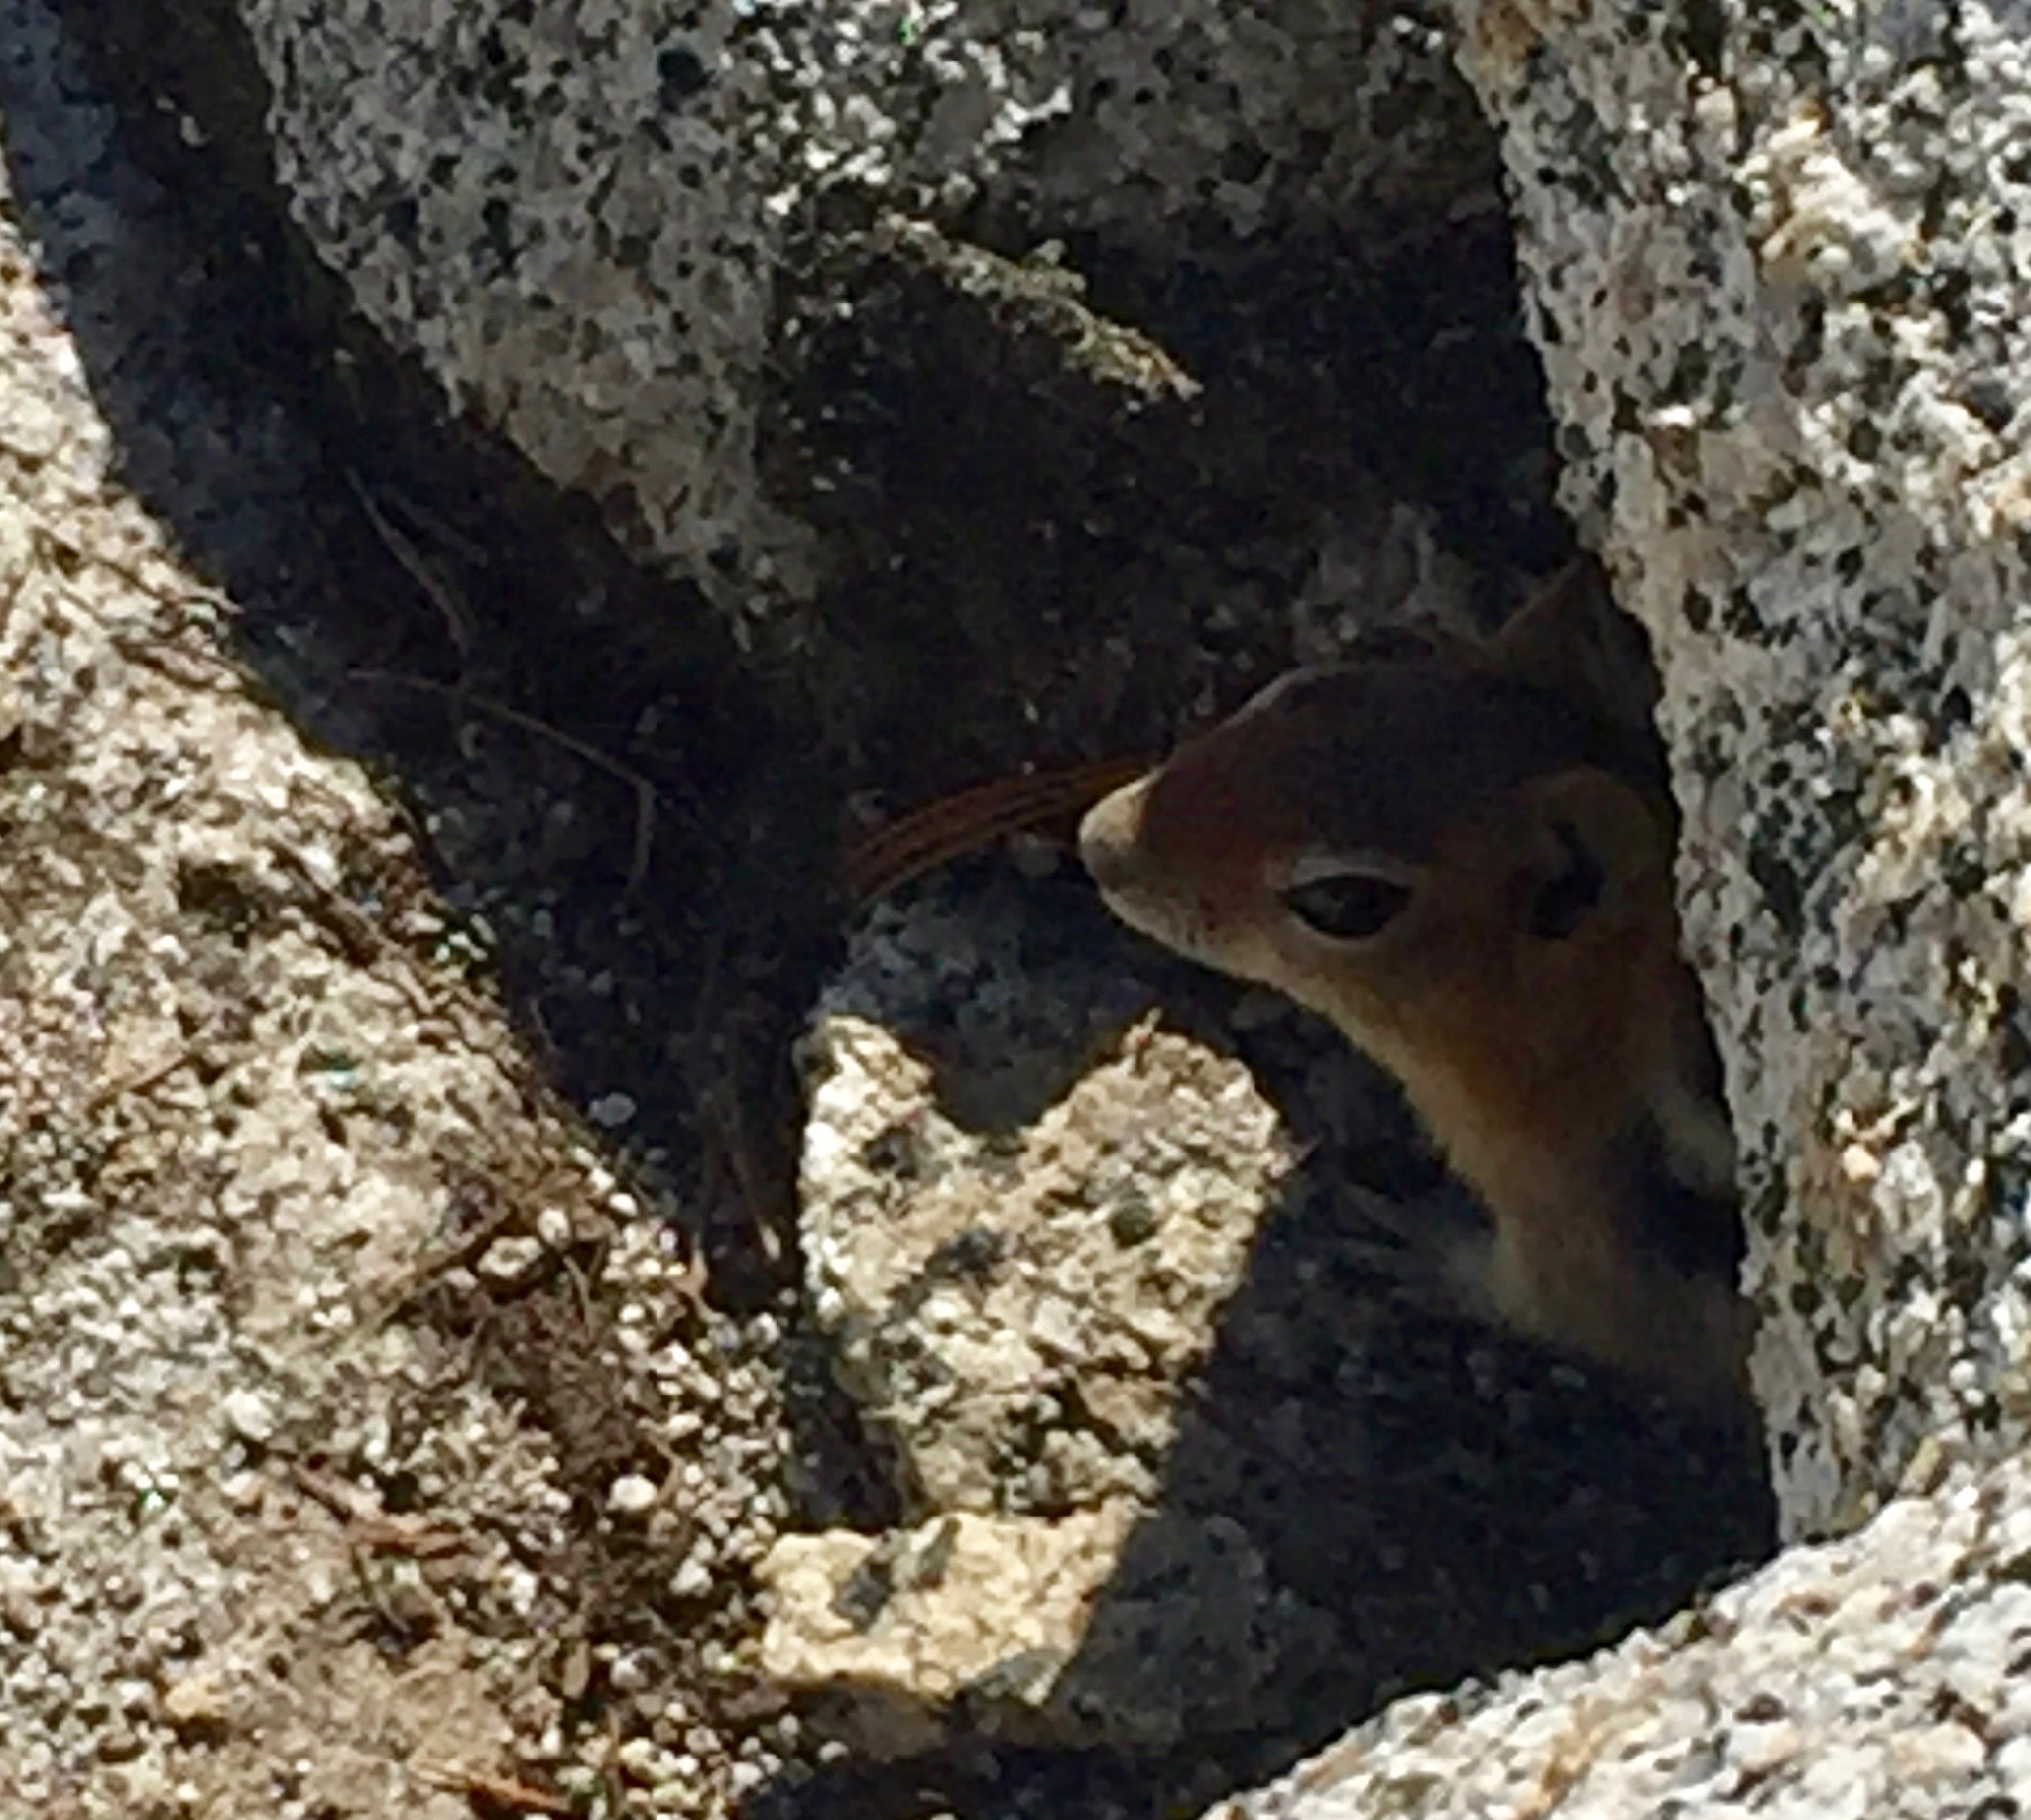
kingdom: Animalia
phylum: Chordata
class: Mammalia
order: Rodentia
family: Sciuridae
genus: Callospermophilus
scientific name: Callospermophilus lateralis
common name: Golden-mantled ground squirrel
